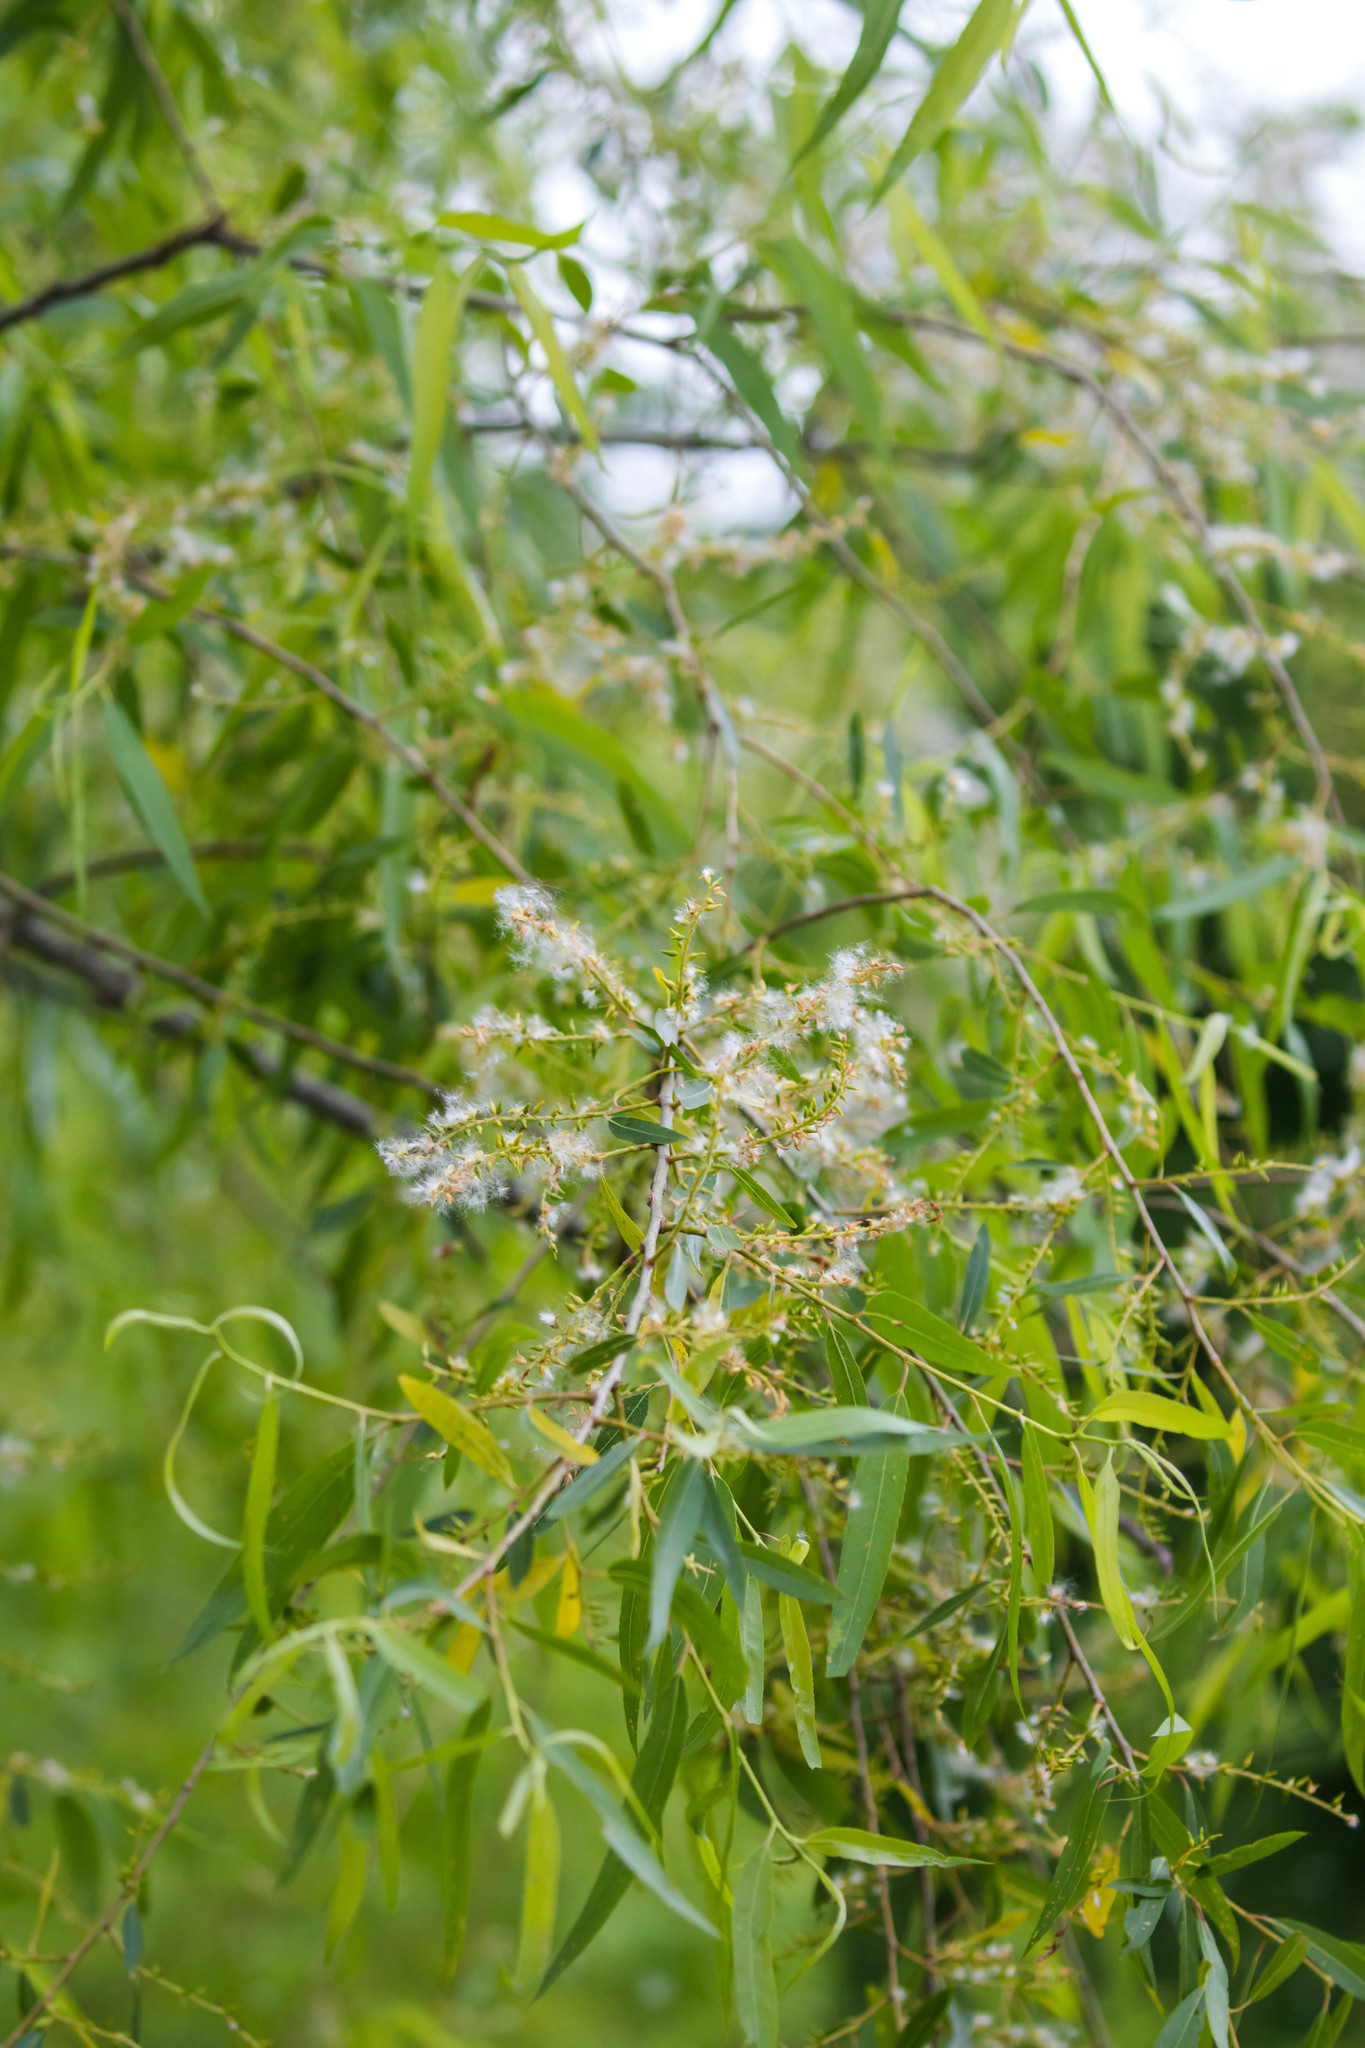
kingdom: Plantae
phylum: Tracheophyta
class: Magnoliopsida
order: Malpighiales
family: Salicaceae
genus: Salix
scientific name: Salix nigra
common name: Black willow
